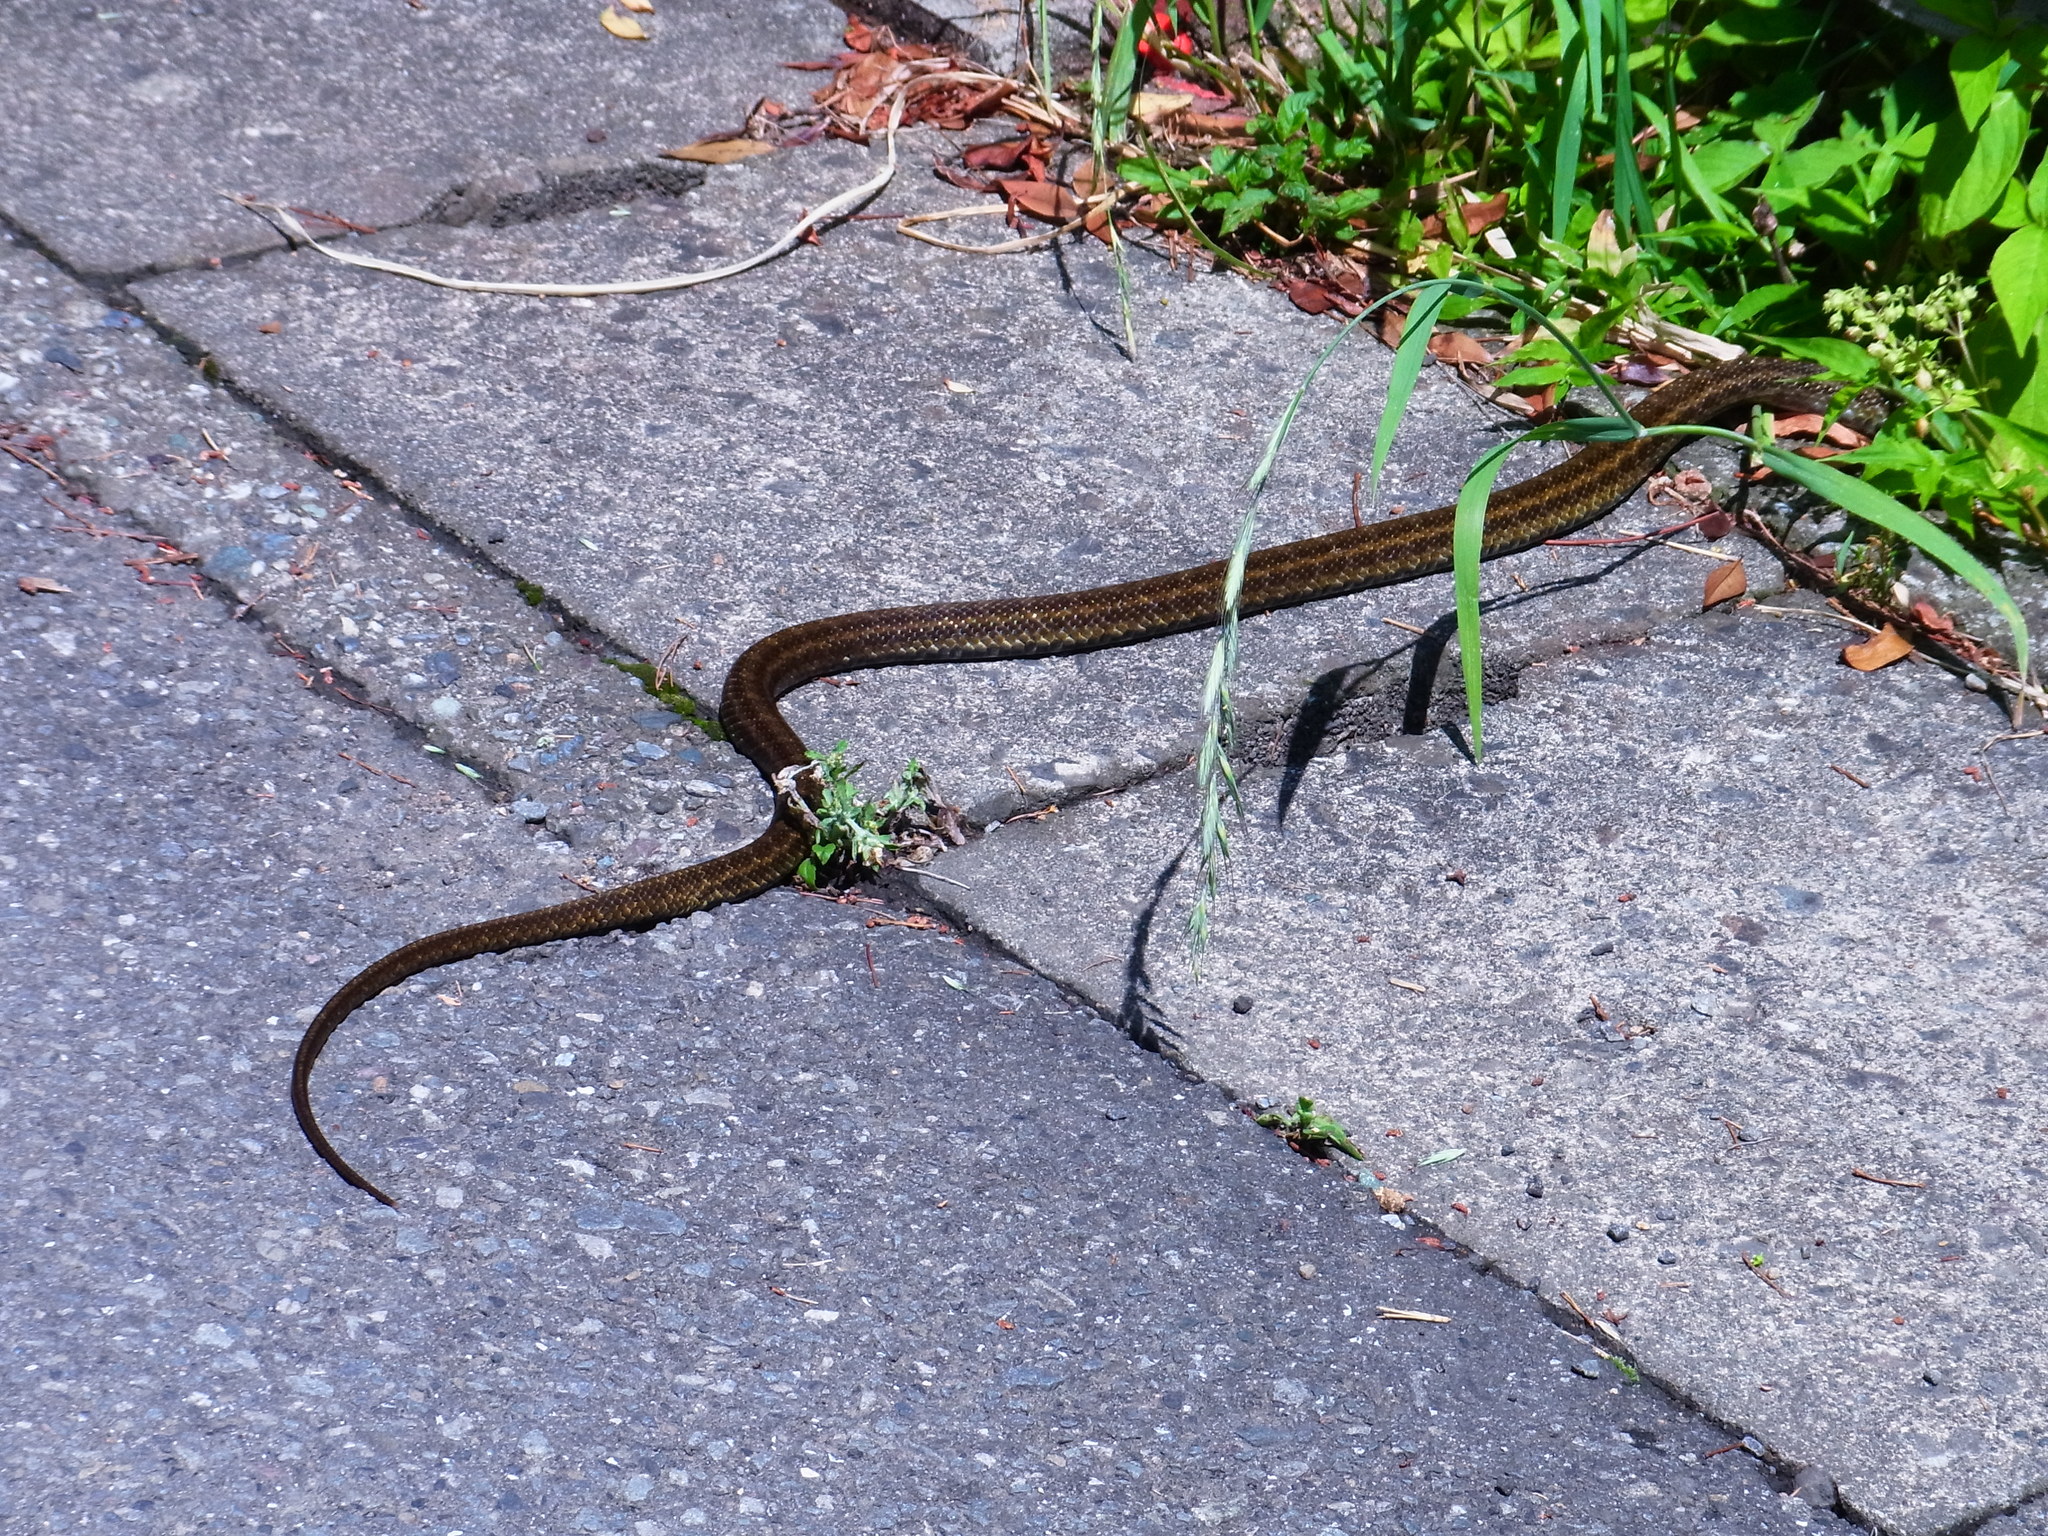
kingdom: Animalia
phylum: Chordata
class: Squamata
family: Colubridae
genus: Elaphe
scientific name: Elaphe climacophora
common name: Japanese ratsnake
